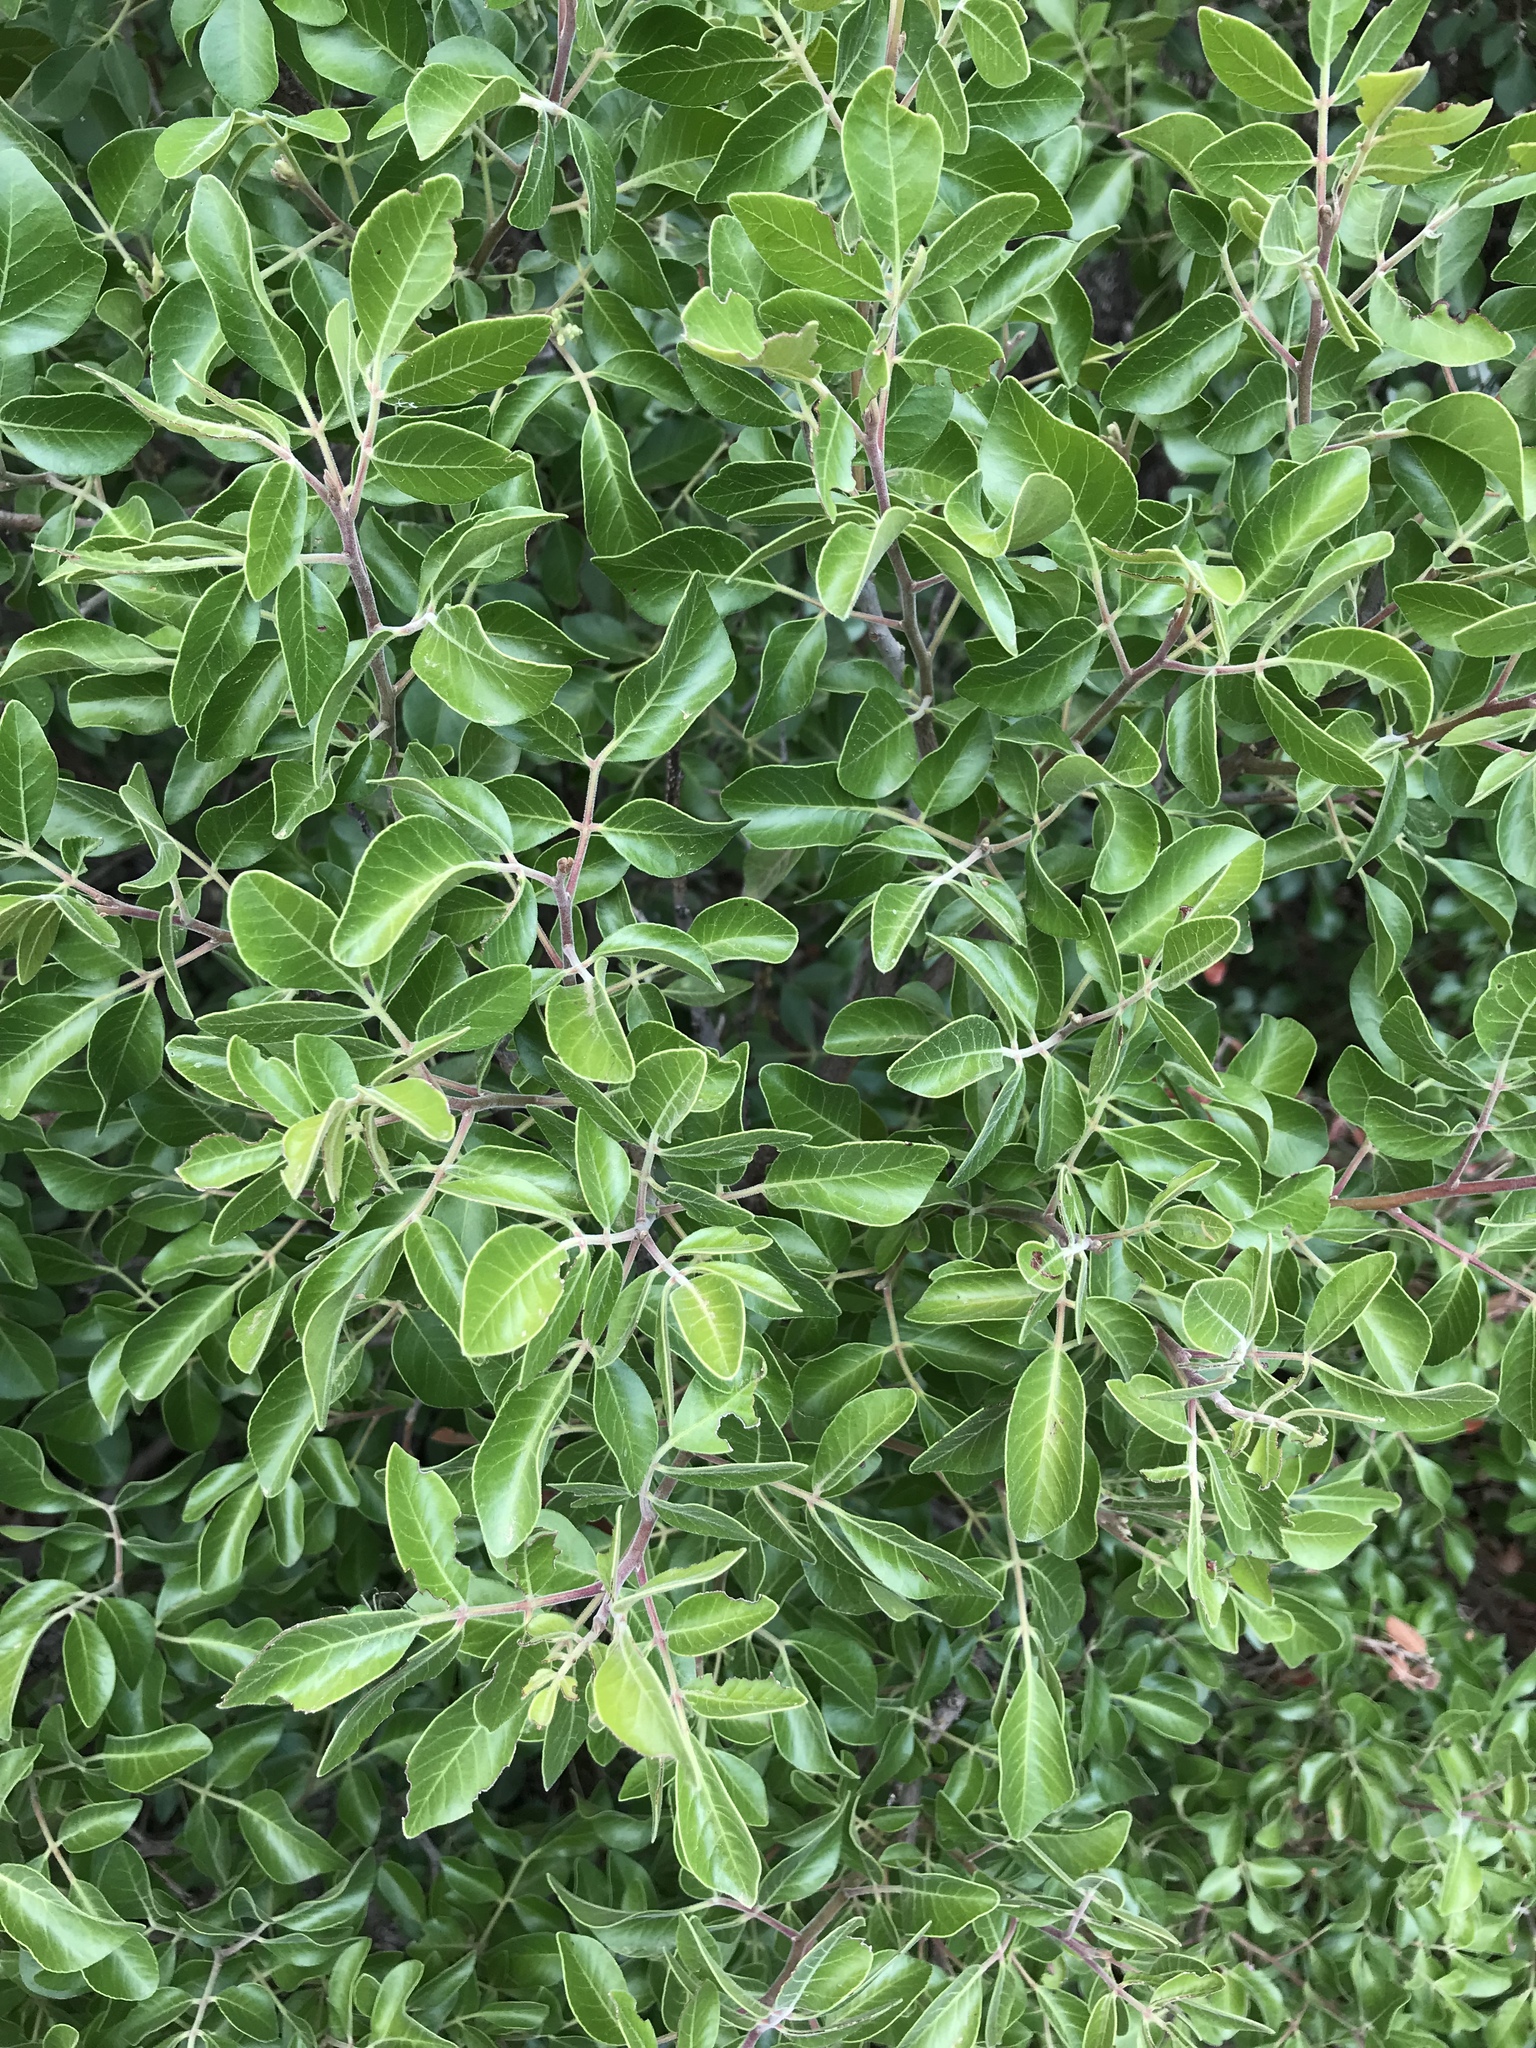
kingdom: Plantae
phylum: Tracheophyta
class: Magnoliopsida
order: Sapindales
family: Anacardiaceae
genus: Rhus
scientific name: Rhus virens
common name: Evergreen sumac
